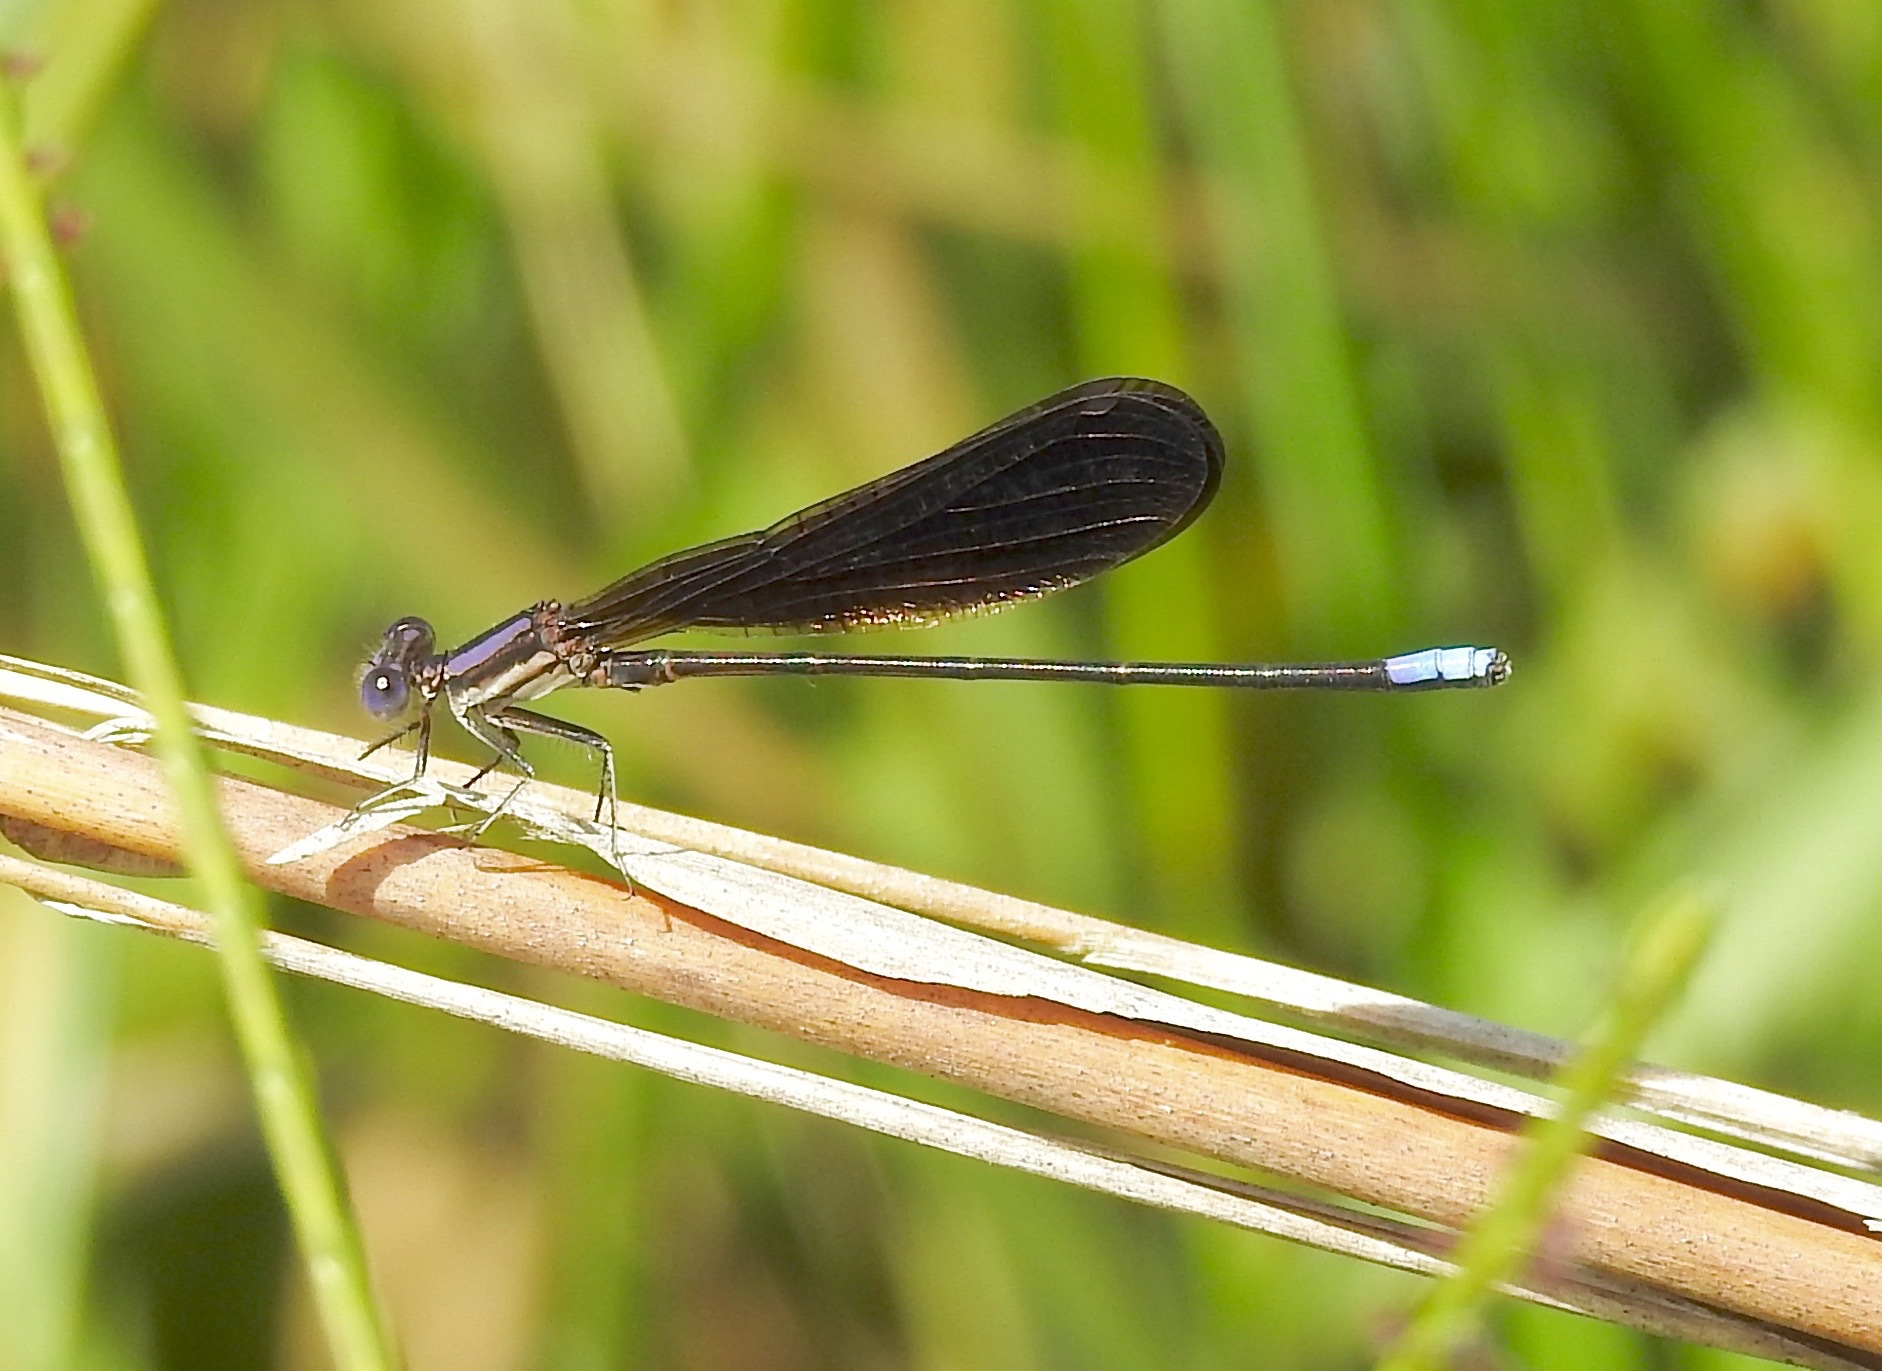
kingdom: Animalia
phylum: Arthropoda
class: Insecta
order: Odonata
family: Coenagrionidae
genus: Argia
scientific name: Argia fumipennis
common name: Variable dancer
